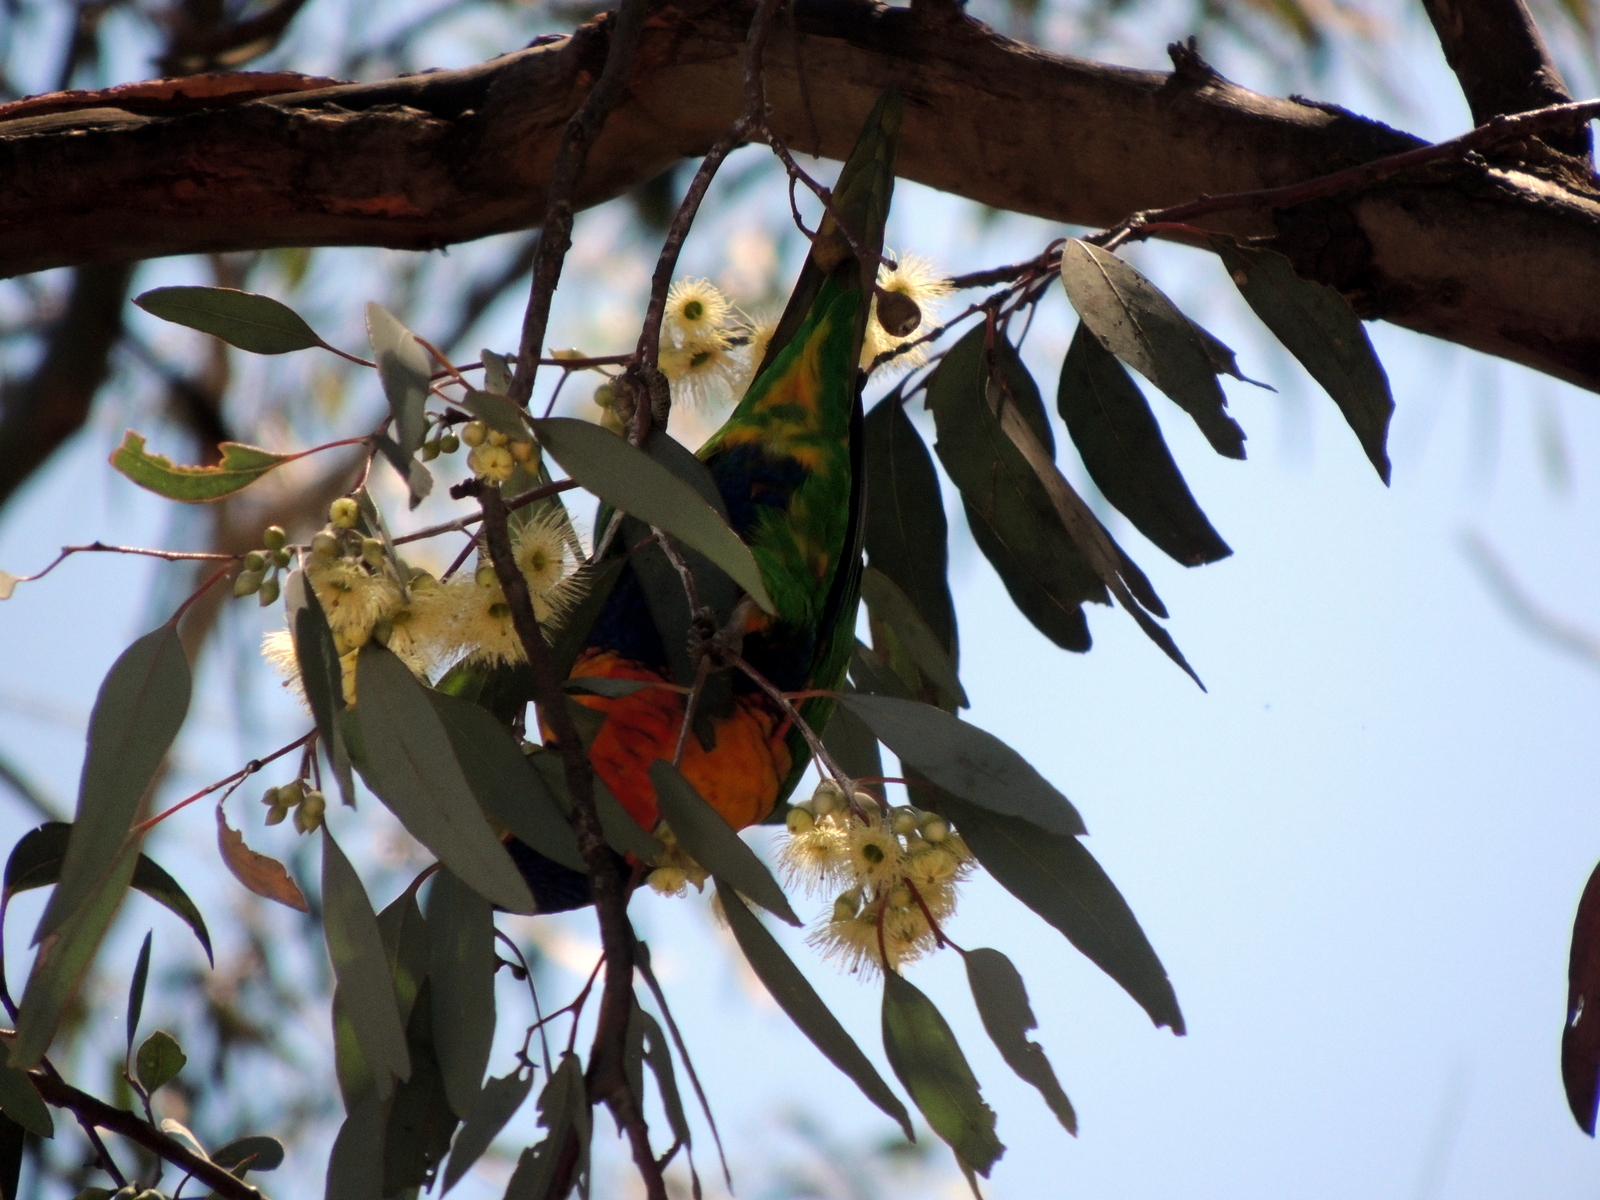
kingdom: Animalia
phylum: Chordata
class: Aves
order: Psittaciformes
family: Psittacidae
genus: Trichoglossus
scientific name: Trichoglossus haematodus
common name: Coconut lorikeet
